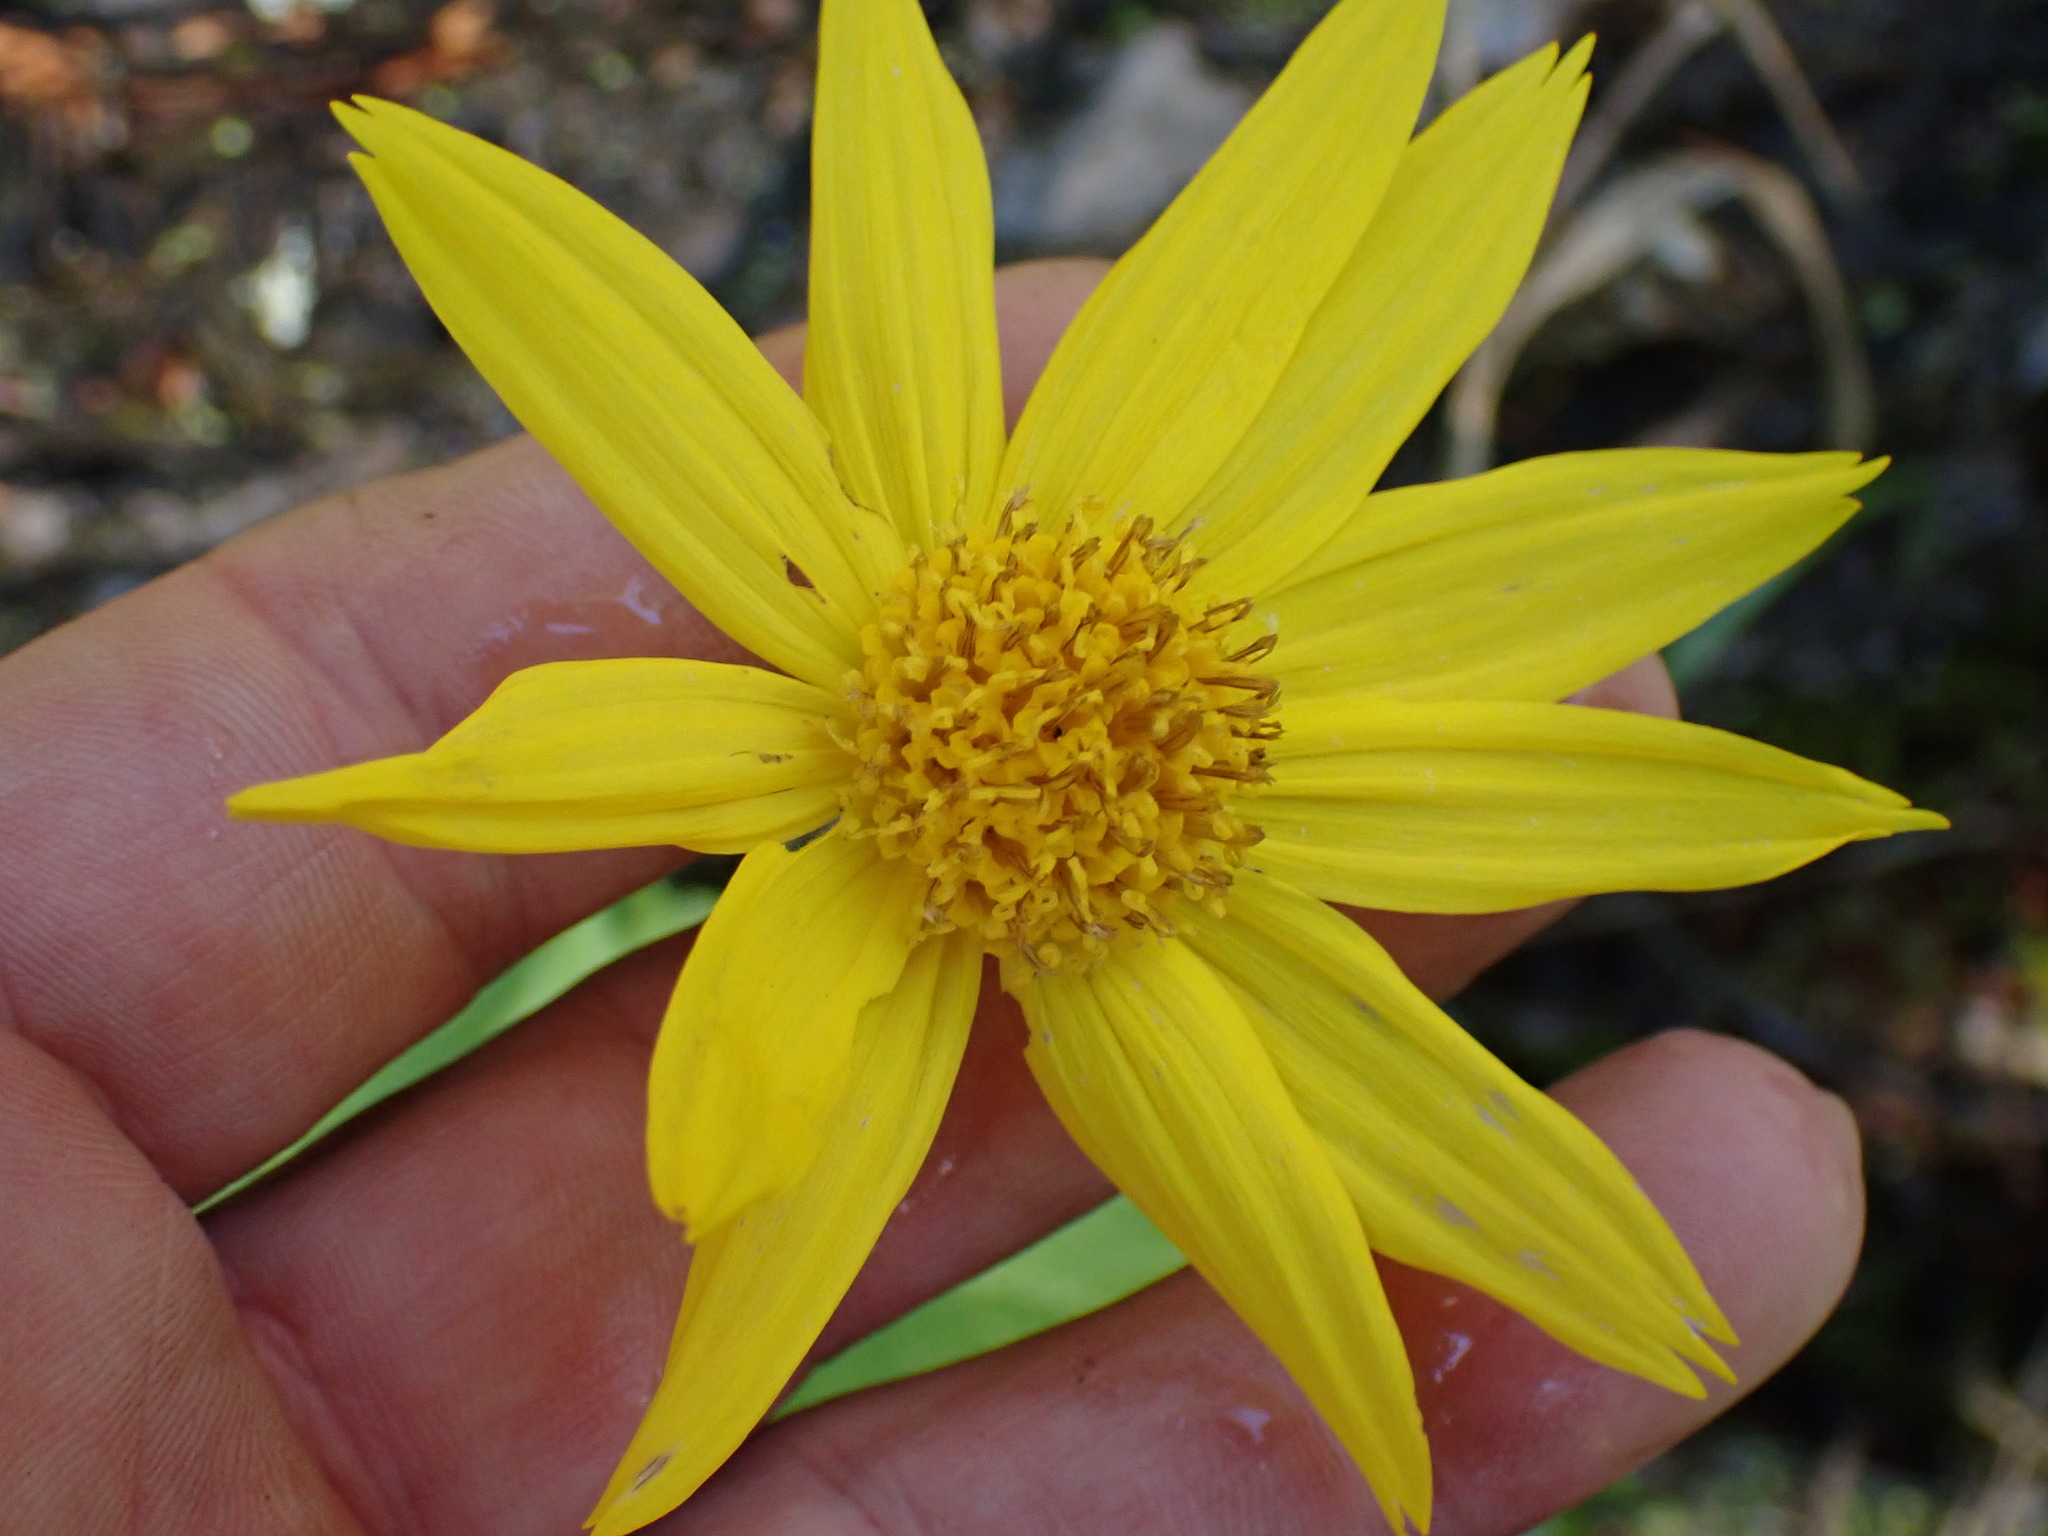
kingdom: Plantae
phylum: Tracheophyta
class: Magnoliopsida
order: Asterales
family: Asteraceae
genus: Arnica
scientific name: Arnica latifolia
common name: Arnica
